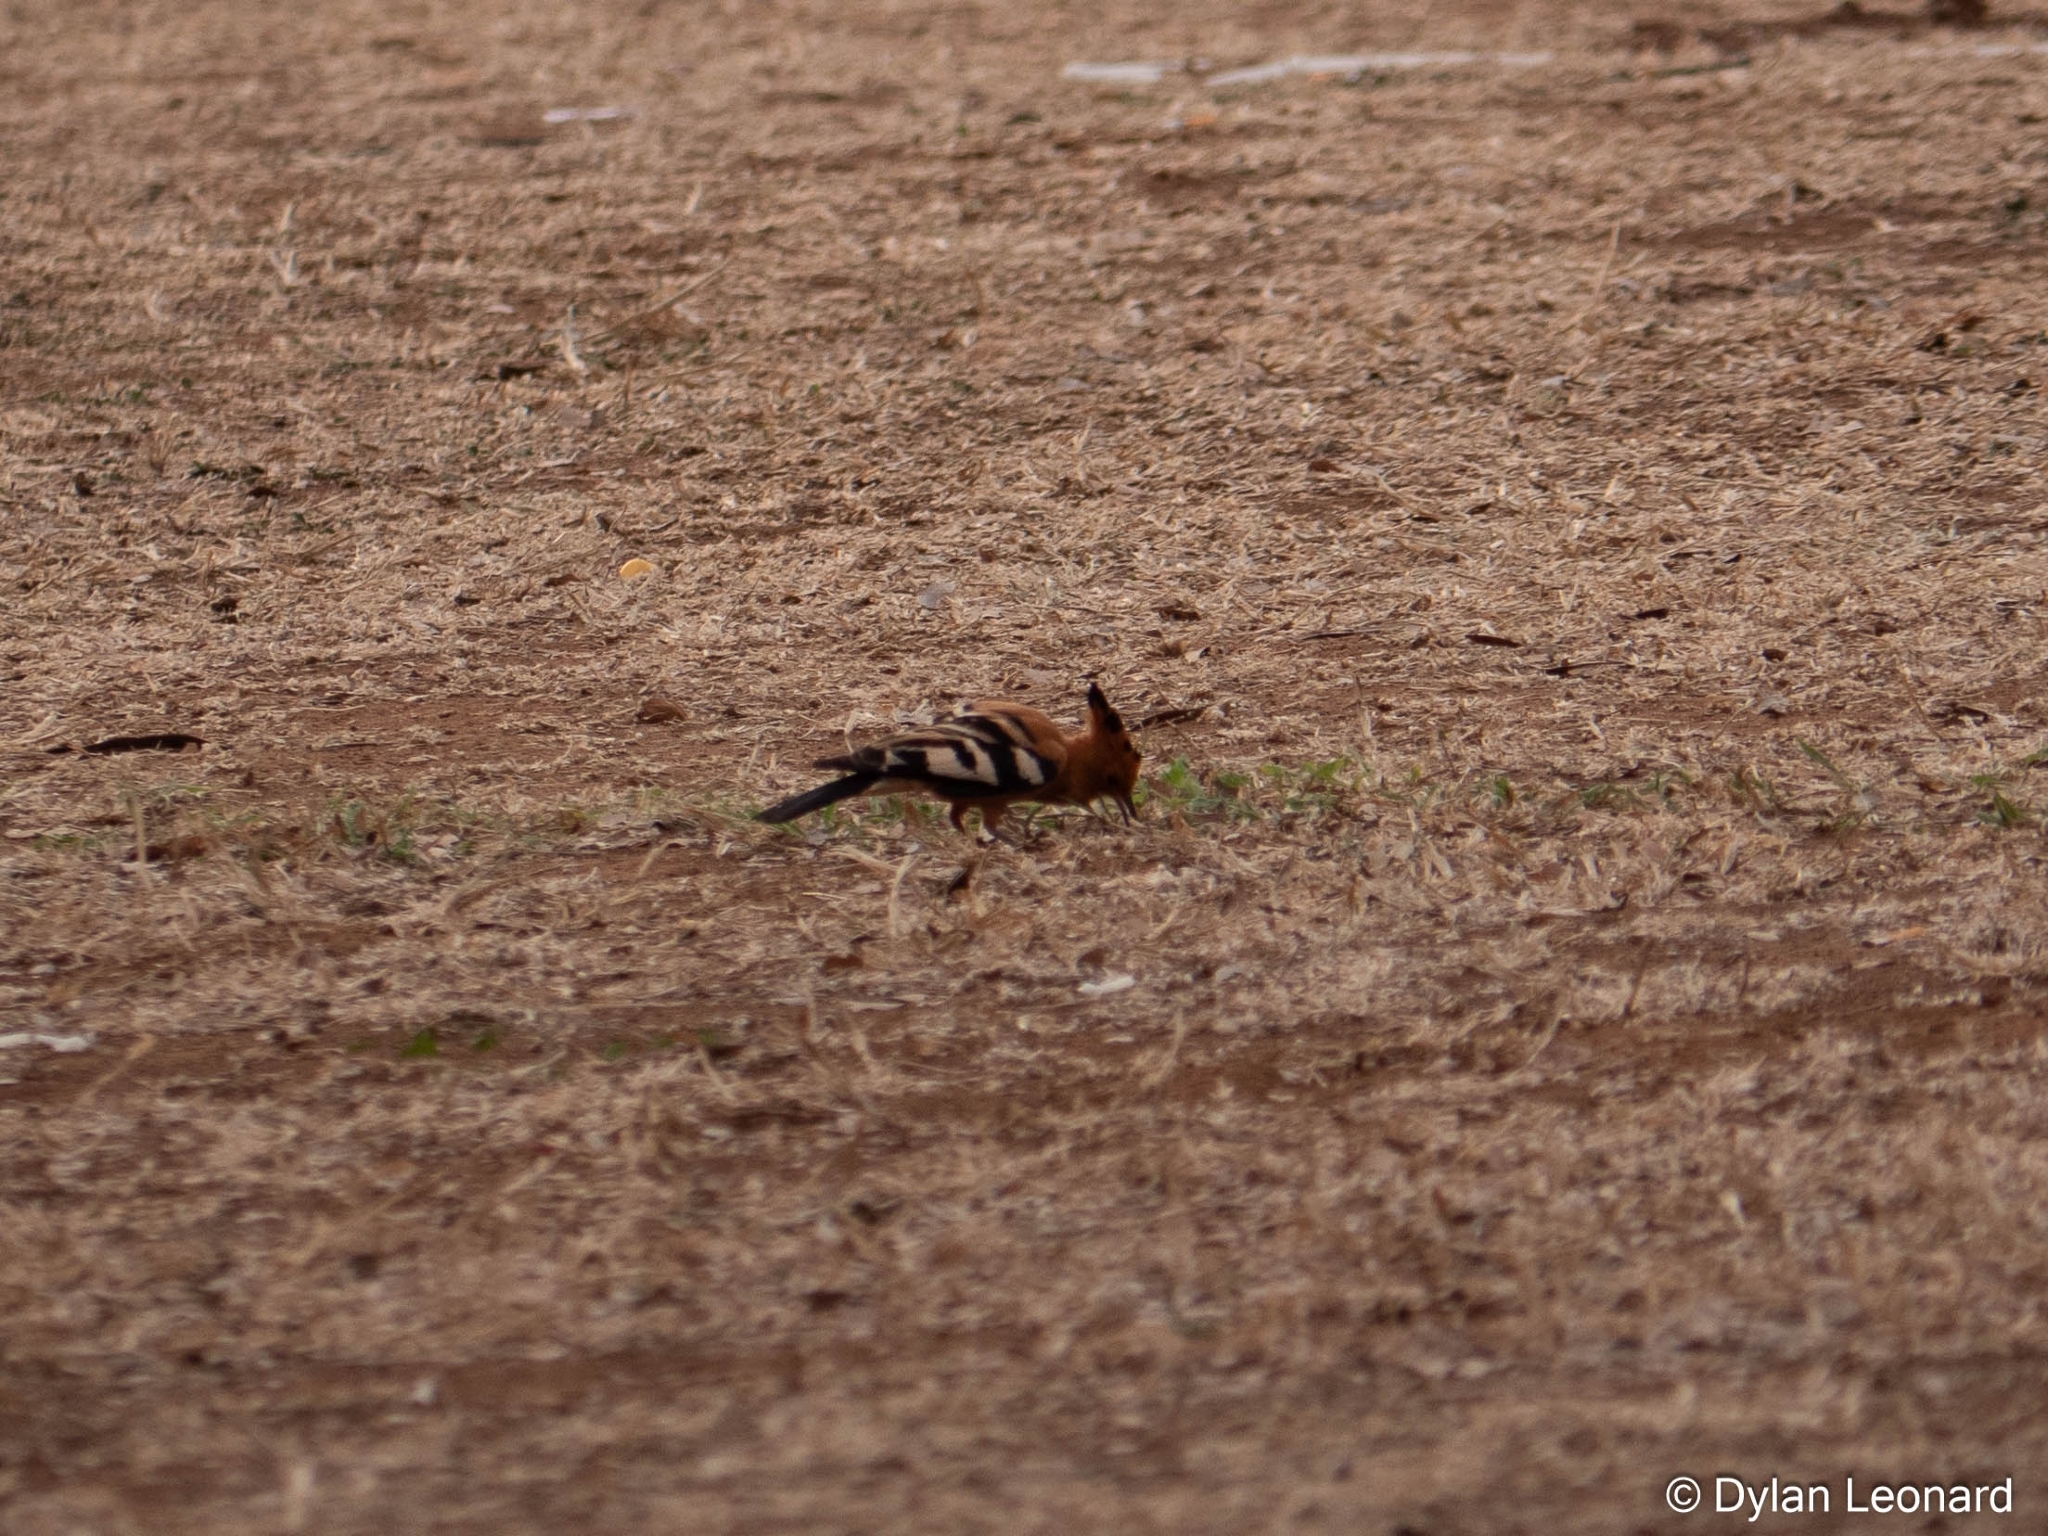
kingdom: Animalia
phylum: Chordata
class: Aves
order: Bucerotiformes
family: Upupidae
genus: Upupa
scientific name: Upupa africana
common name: African hoopoe
